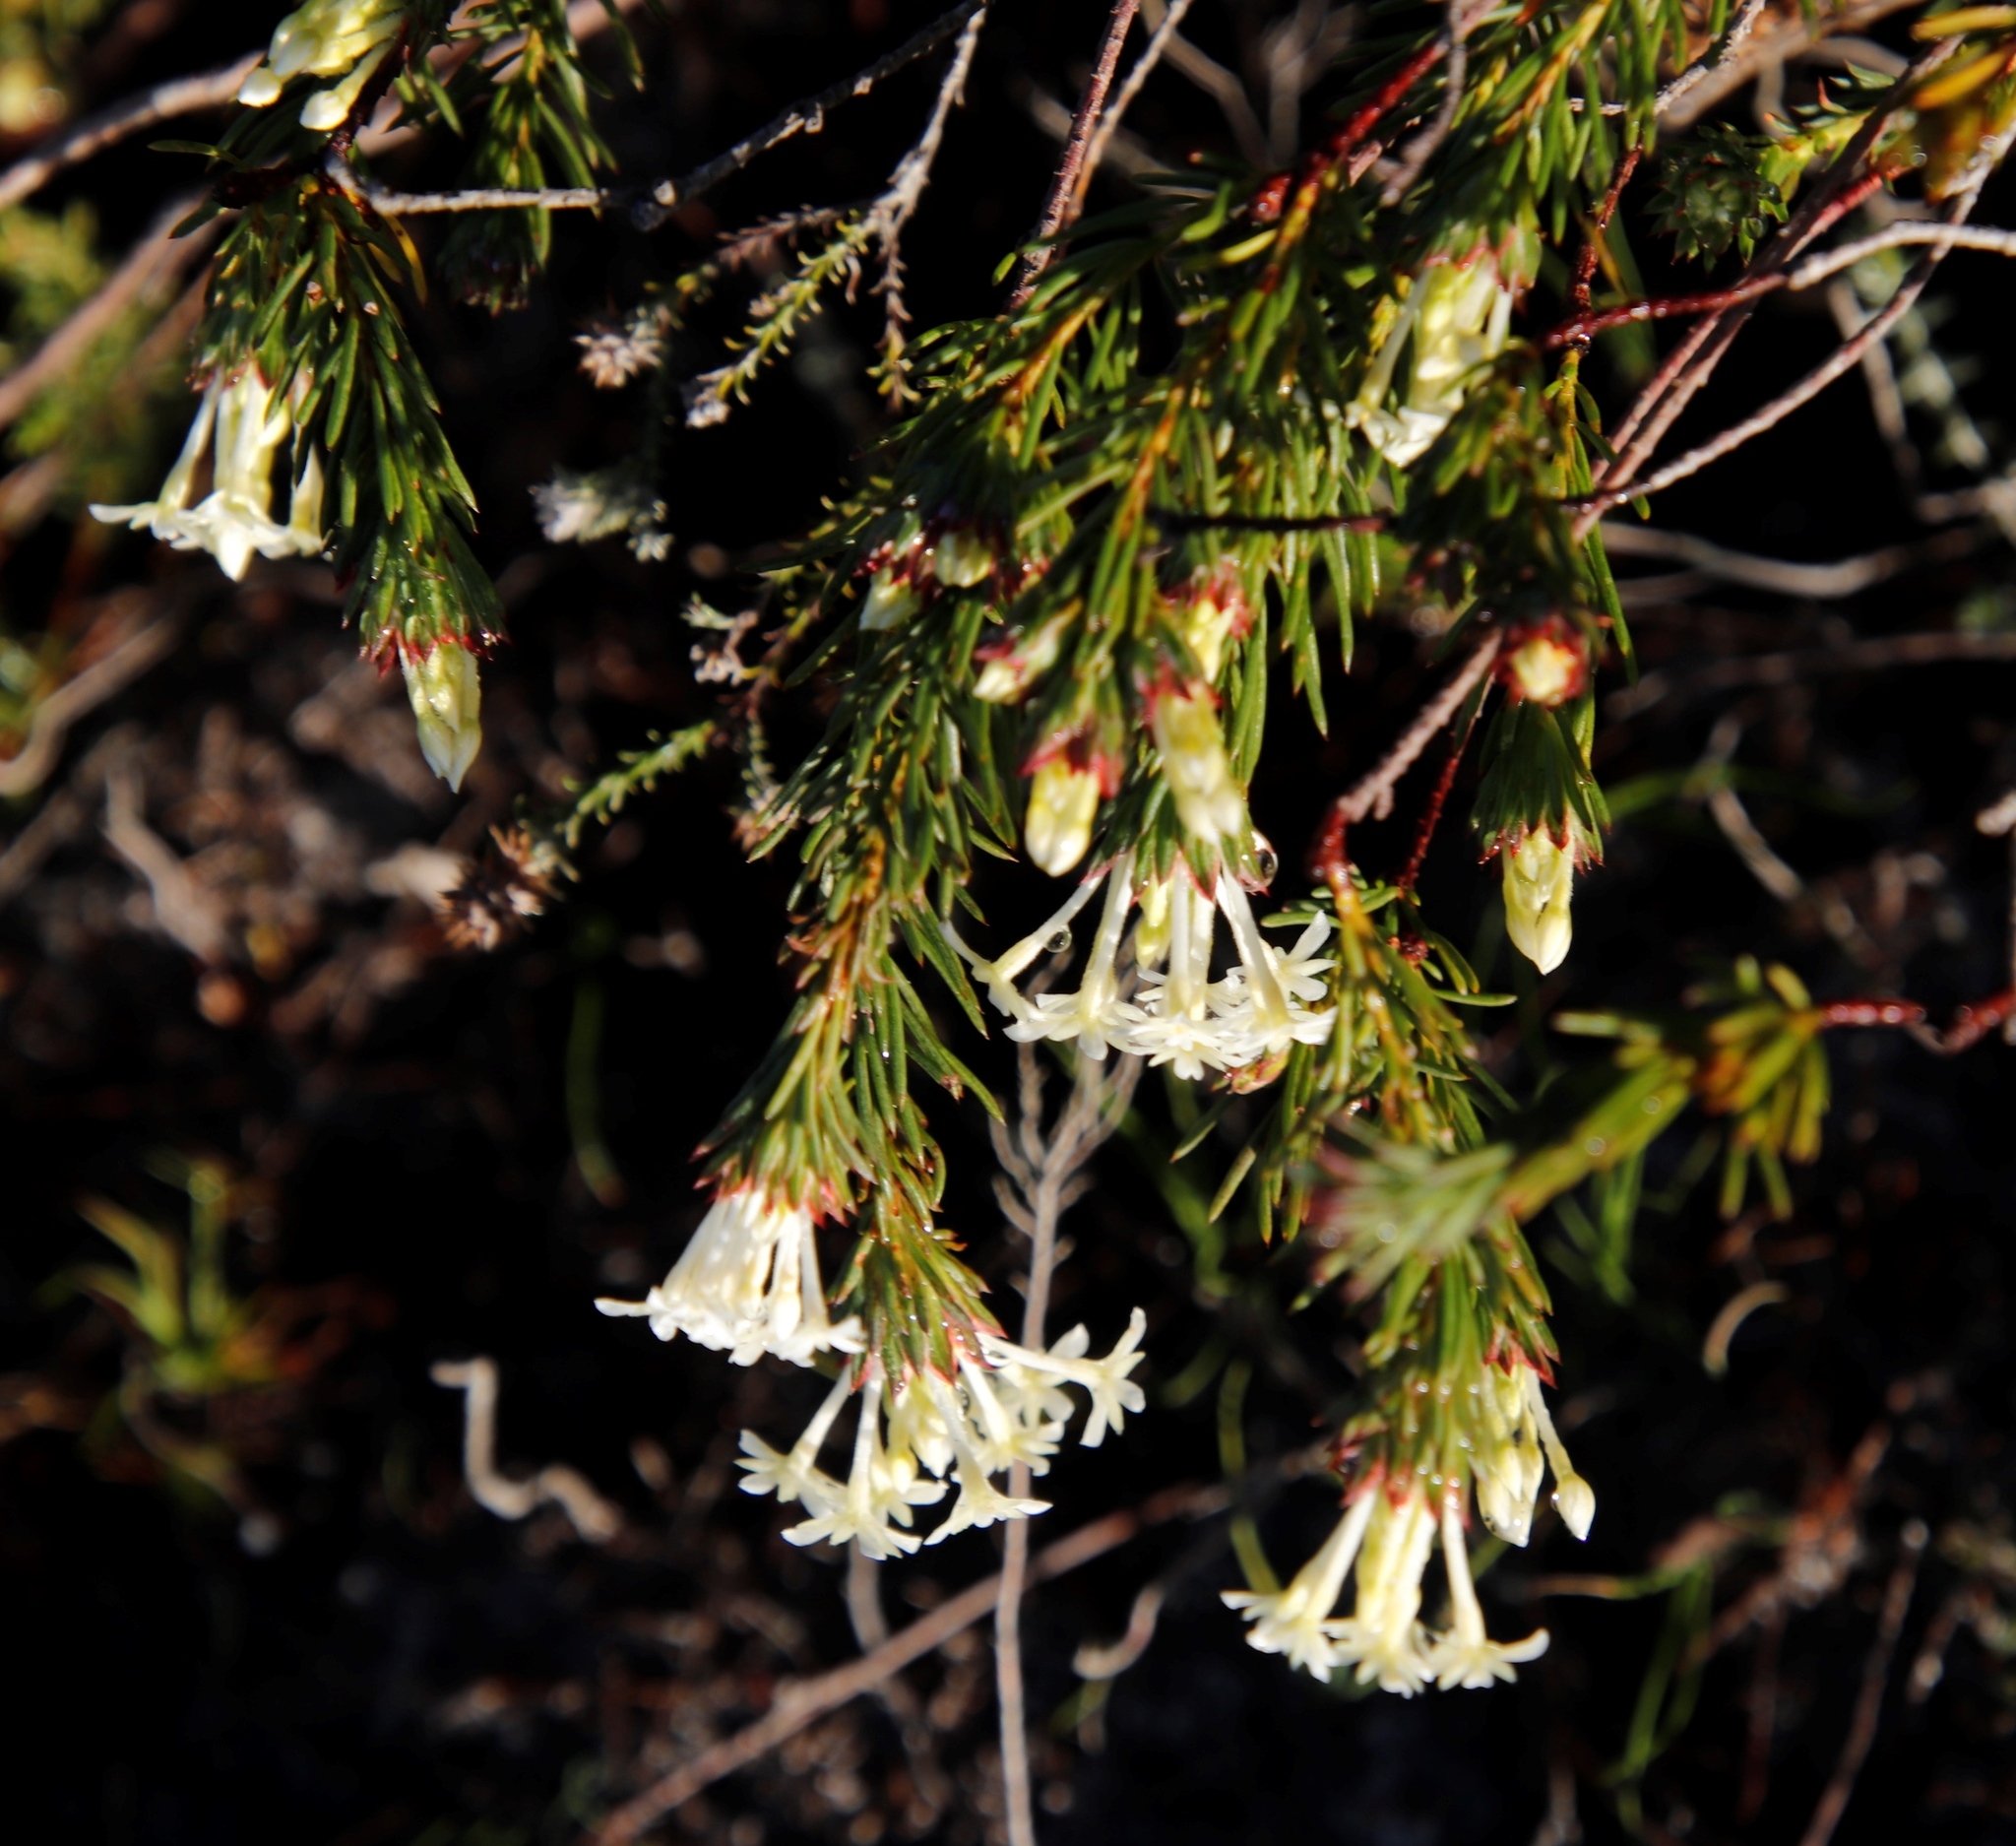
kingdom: Plantae
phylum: Tracheophyta
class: Magnoliopsida
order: Malvales
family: Thymelaeaceae
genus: Gnidia
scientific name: Gnidia pinifolia
